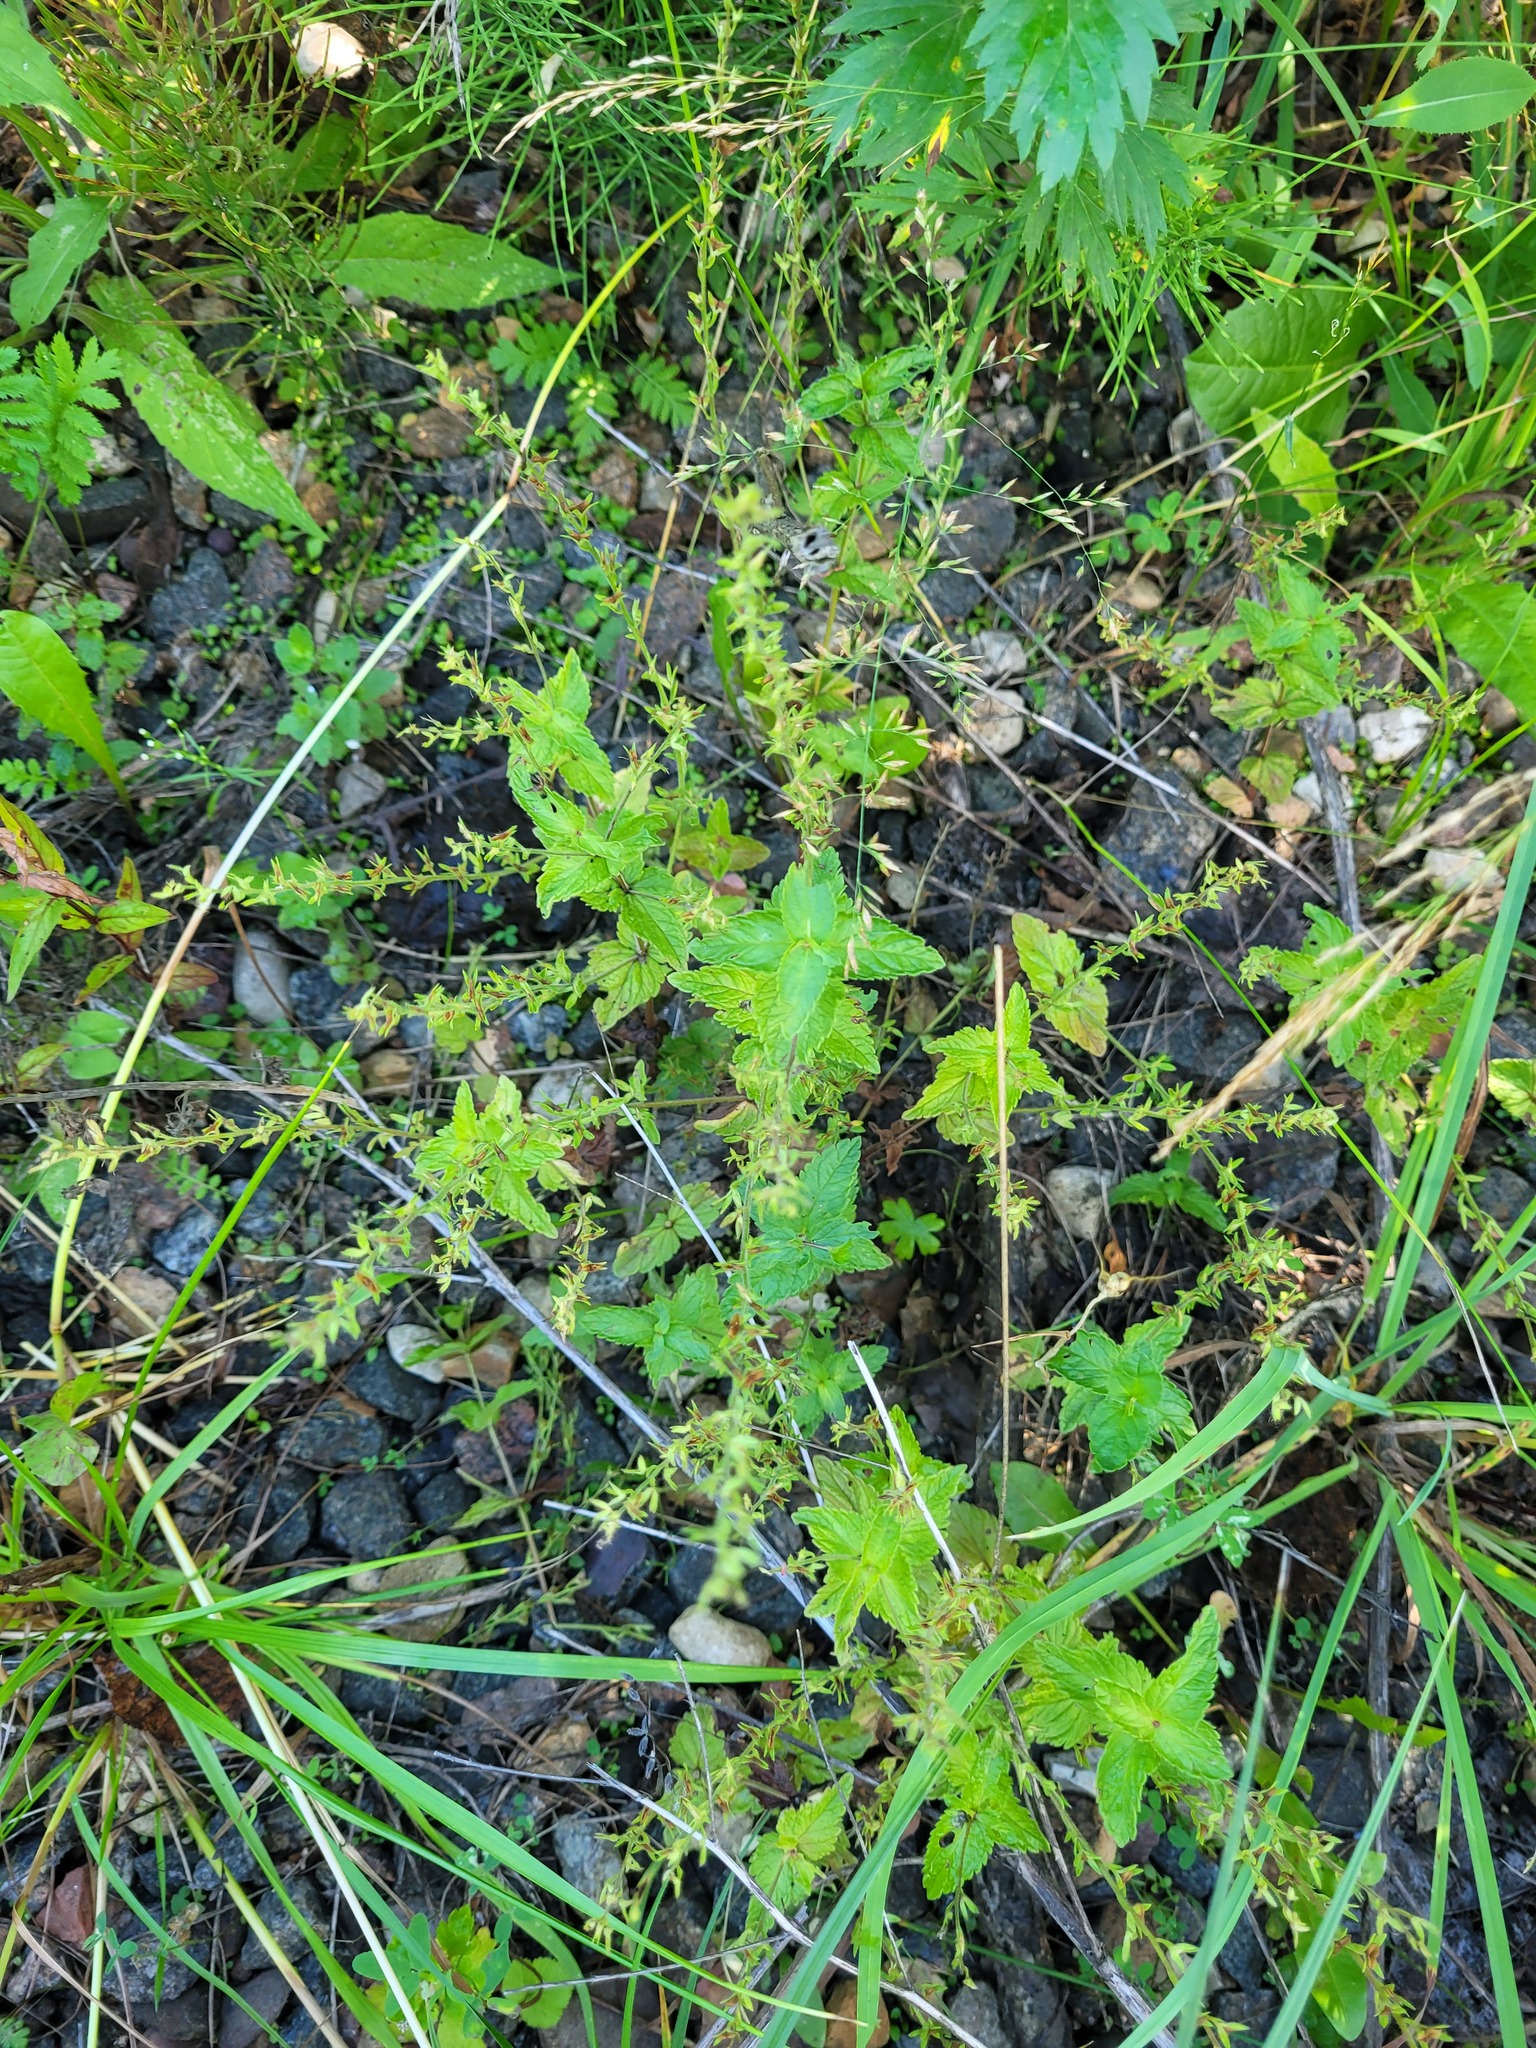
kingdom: Plantae
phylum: Tracheophyta
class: Magnoliopsida
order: Lamiales
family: Plantaginaceae
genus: Veronica
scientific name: Veronica chamaedrys
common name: Germander speedwell
